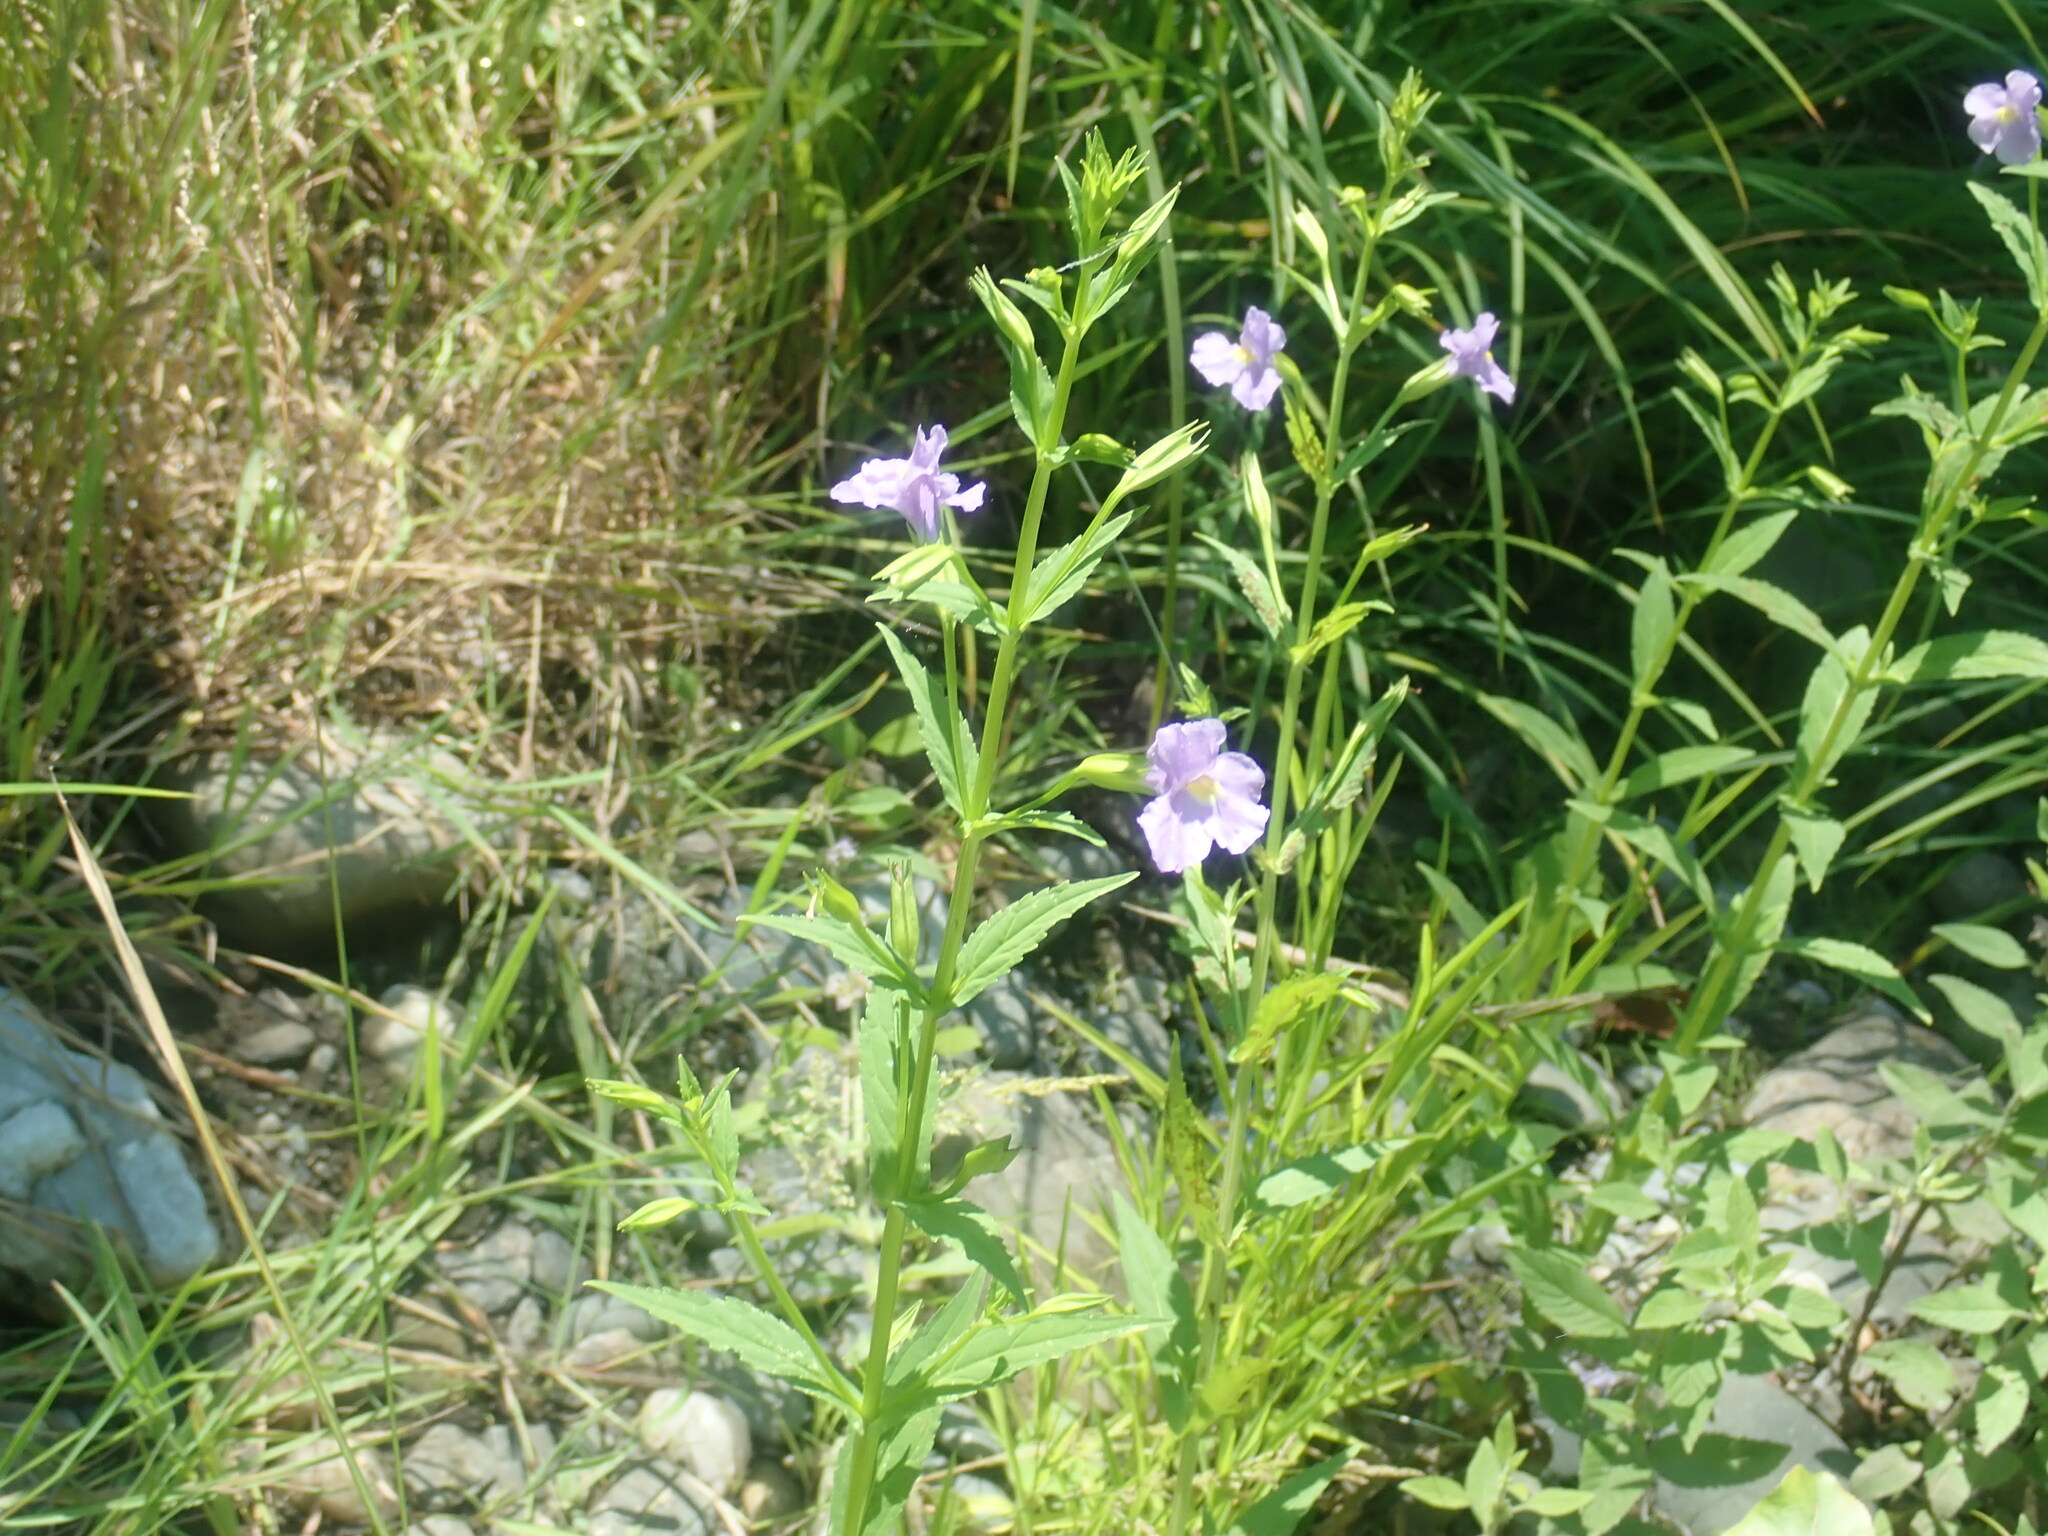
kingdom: Plantae
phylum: Tracheophyta
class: Magnoliopsida
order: Lamiales
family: Phrymaceae
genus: Mimulus
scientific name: Mimulus ringens
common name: Allegheny monkeyflower
